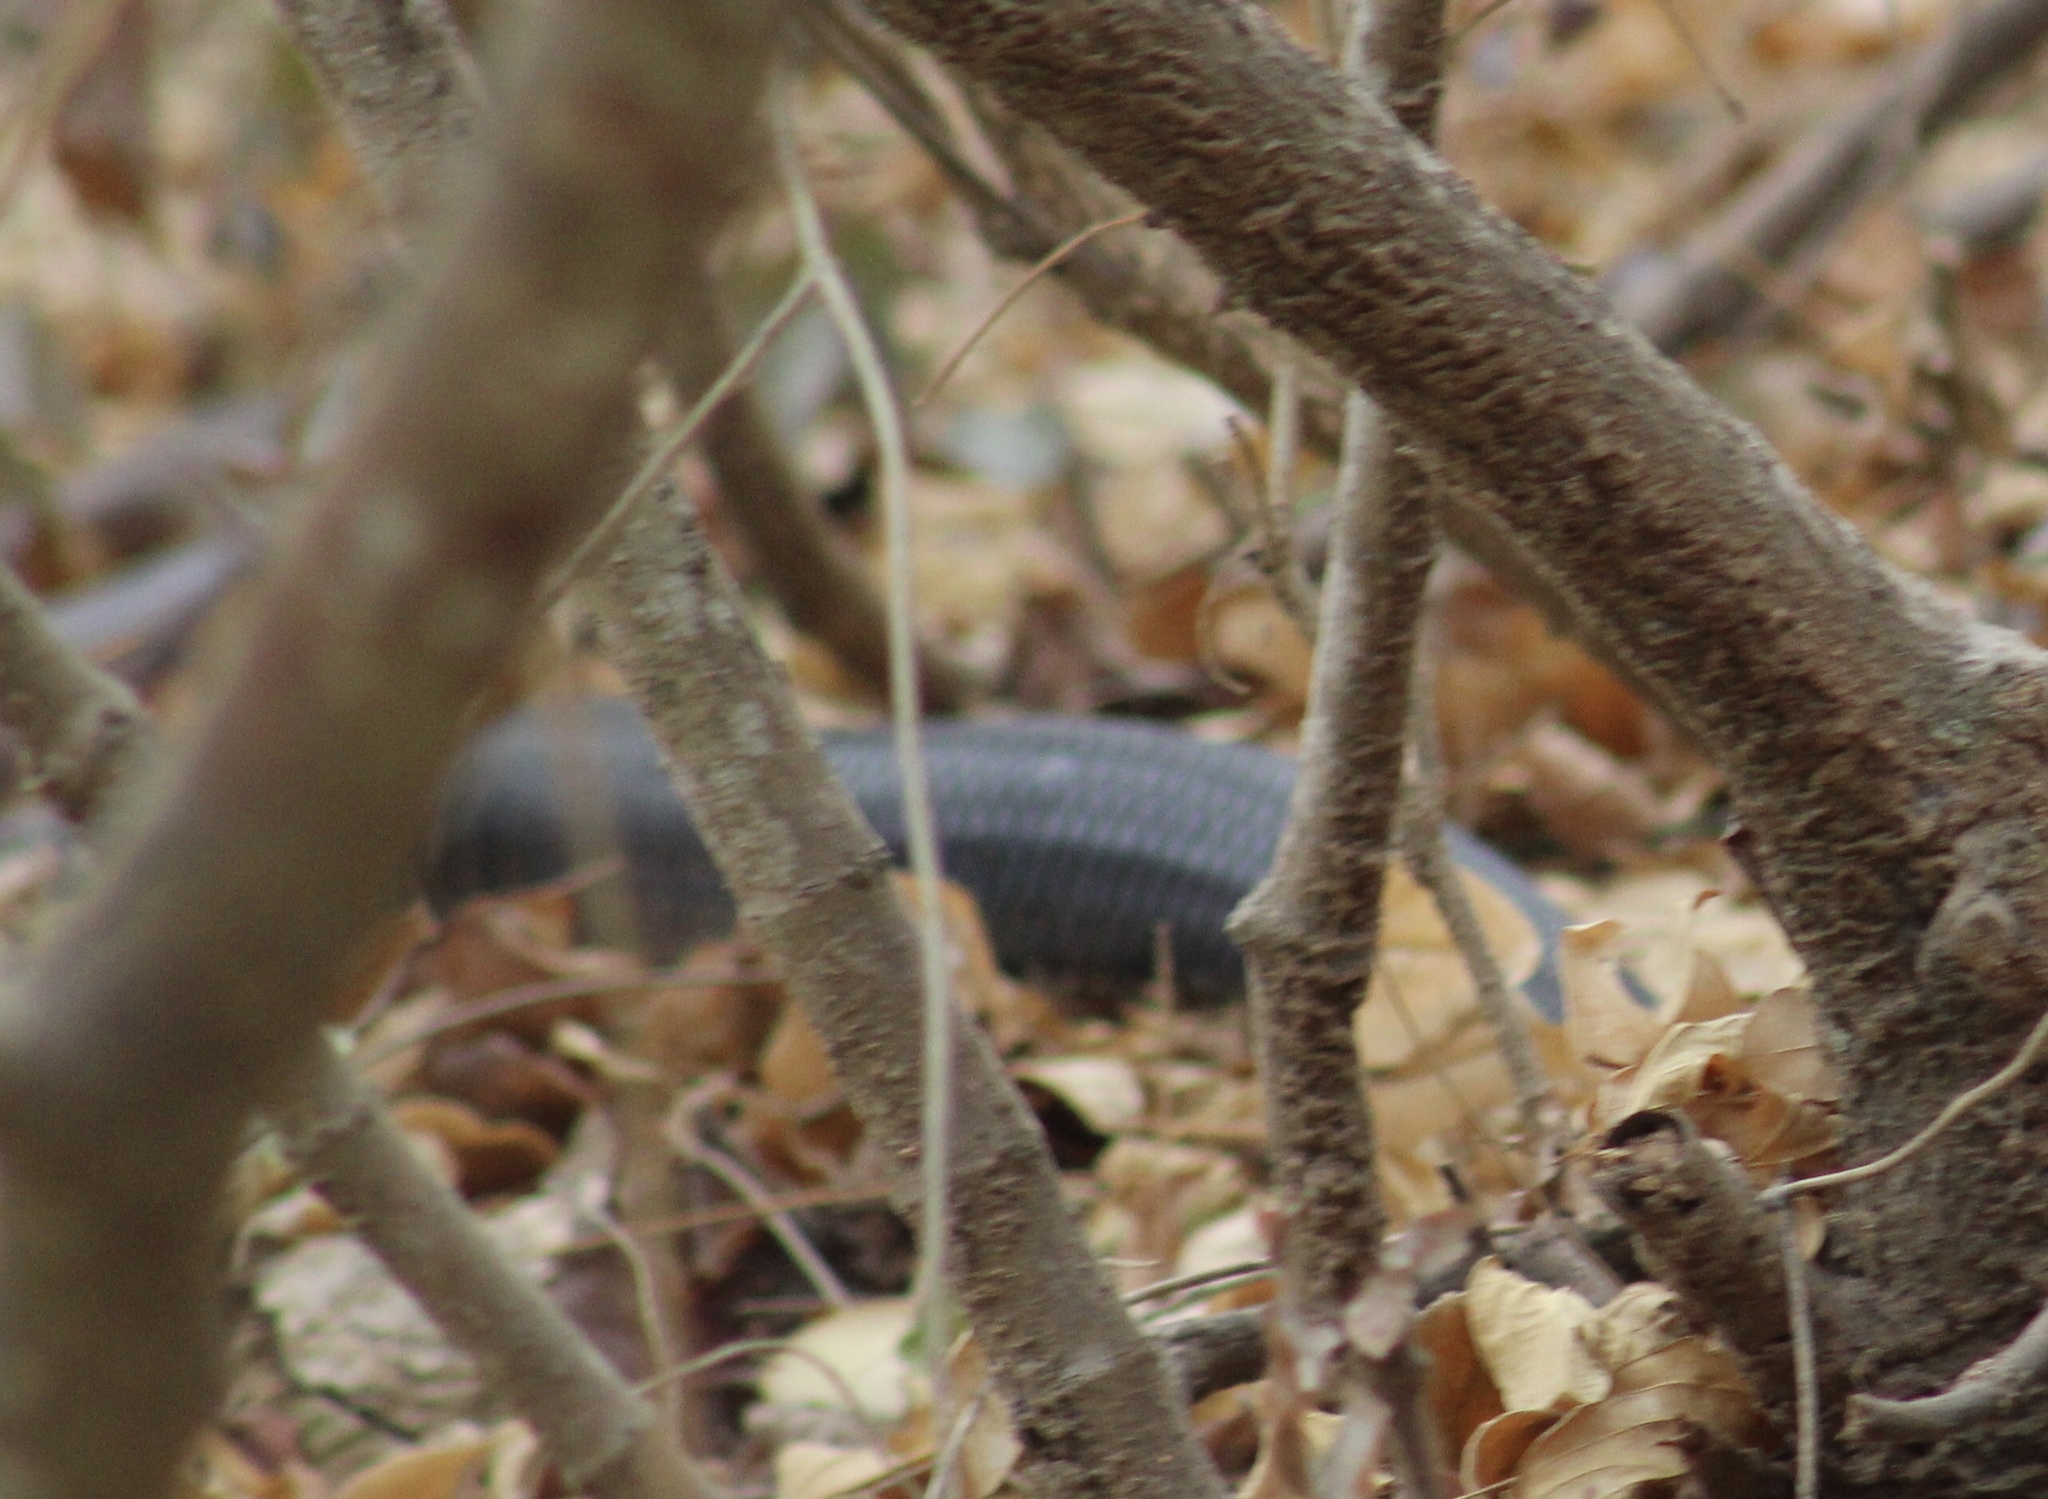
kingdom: Animalia
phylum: Chordata
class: Squamata
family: Colubridae
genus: Drymarchon
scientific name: Drymarchon melanurus
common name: Central american indigo snake
